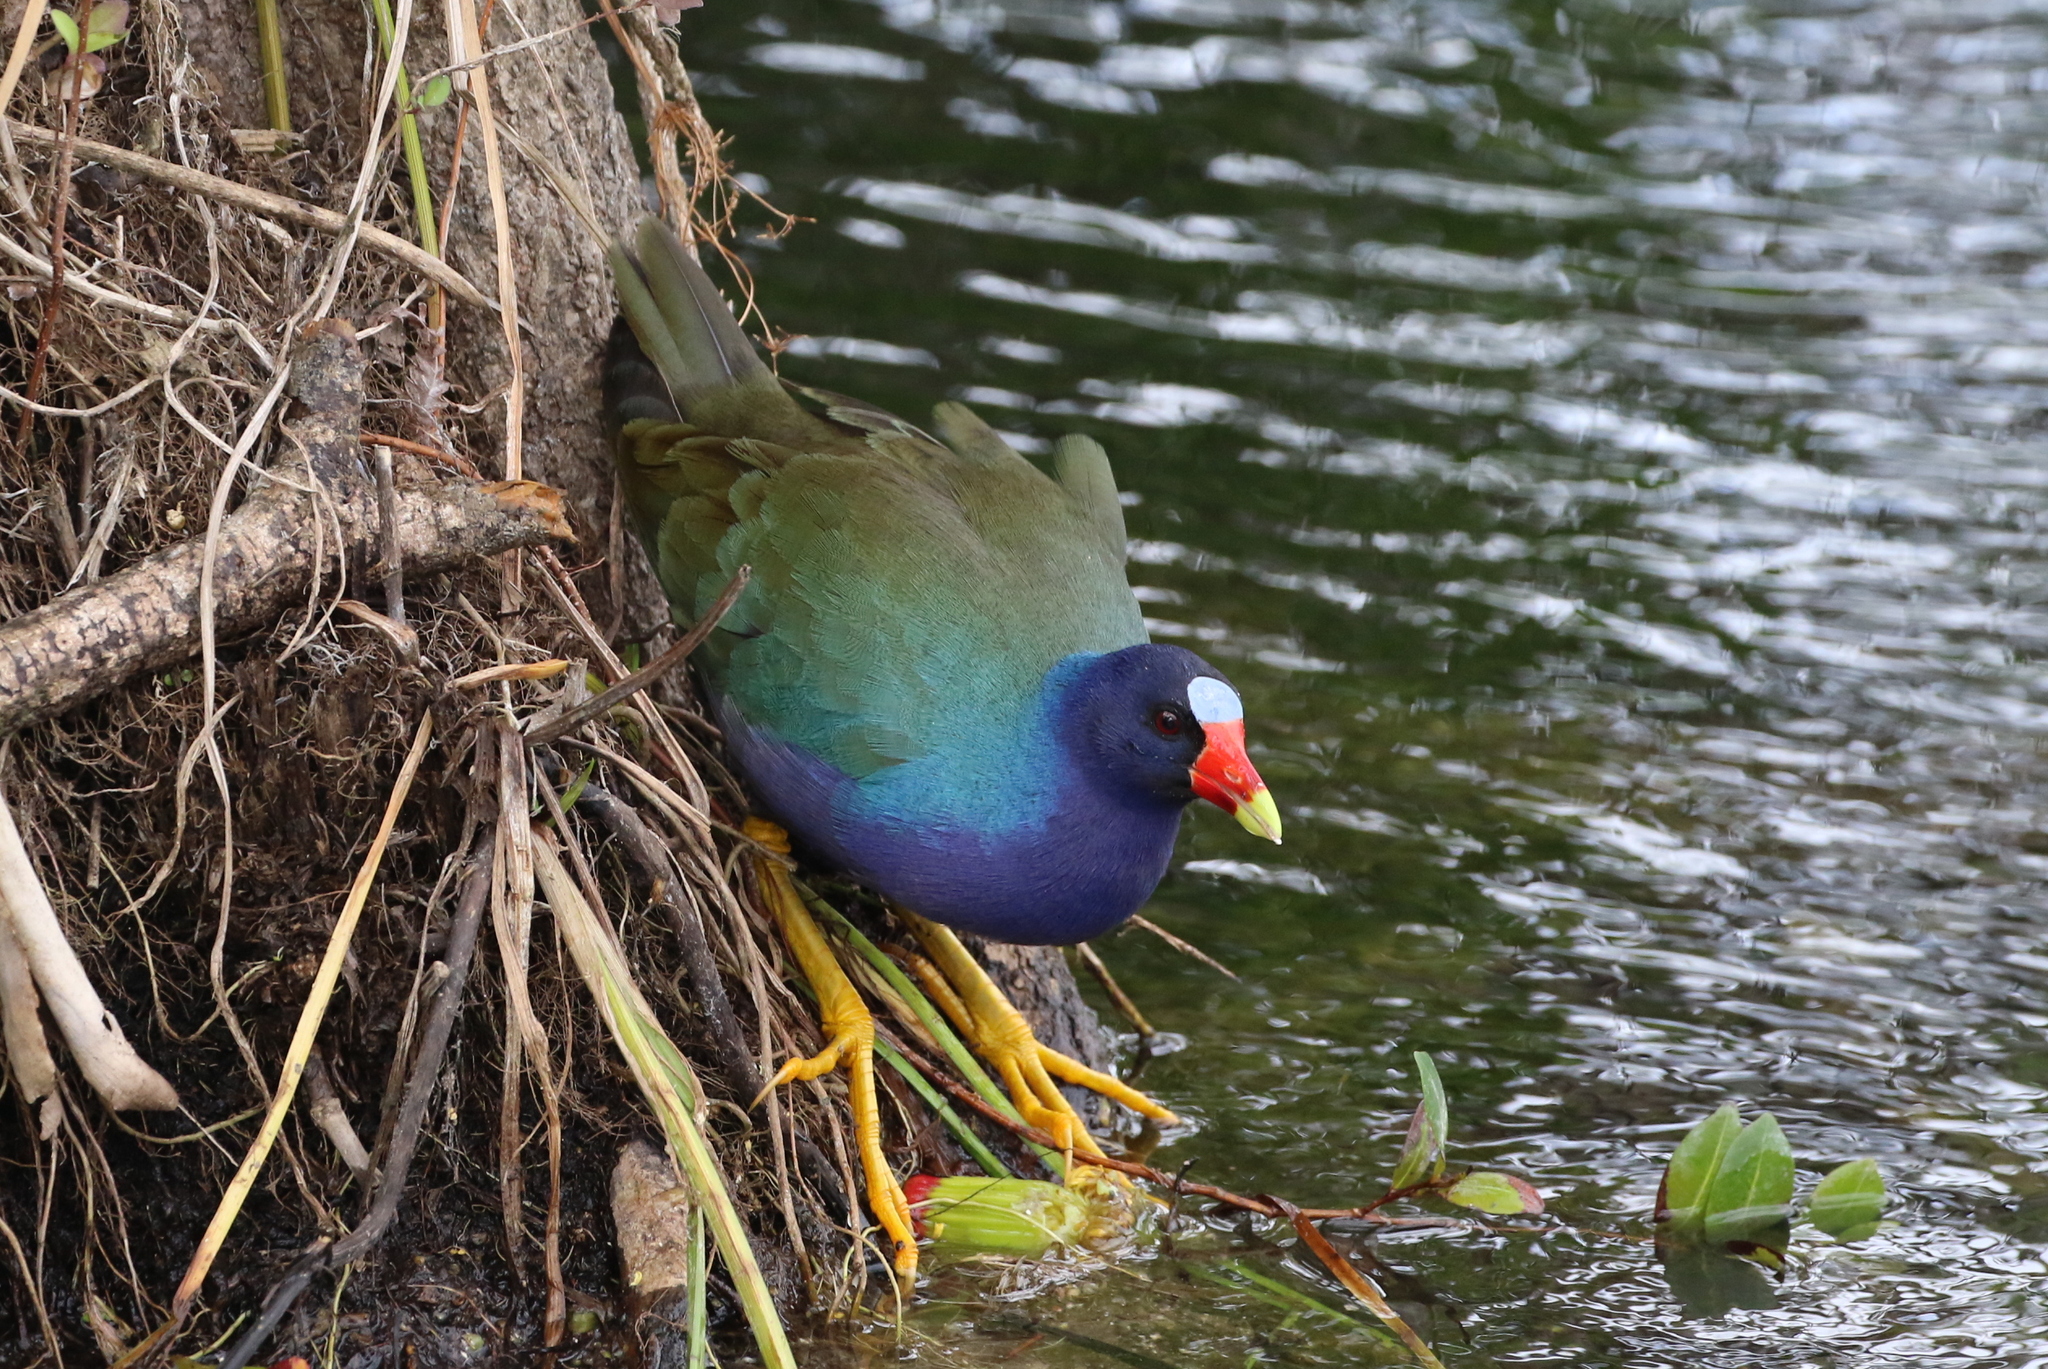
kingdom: Animalia
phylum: Chordata
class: Aves
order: Gruiformes
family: Rallidae
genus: Porphyrio
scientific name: Porphyrio martinica
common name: Purple gallinule
